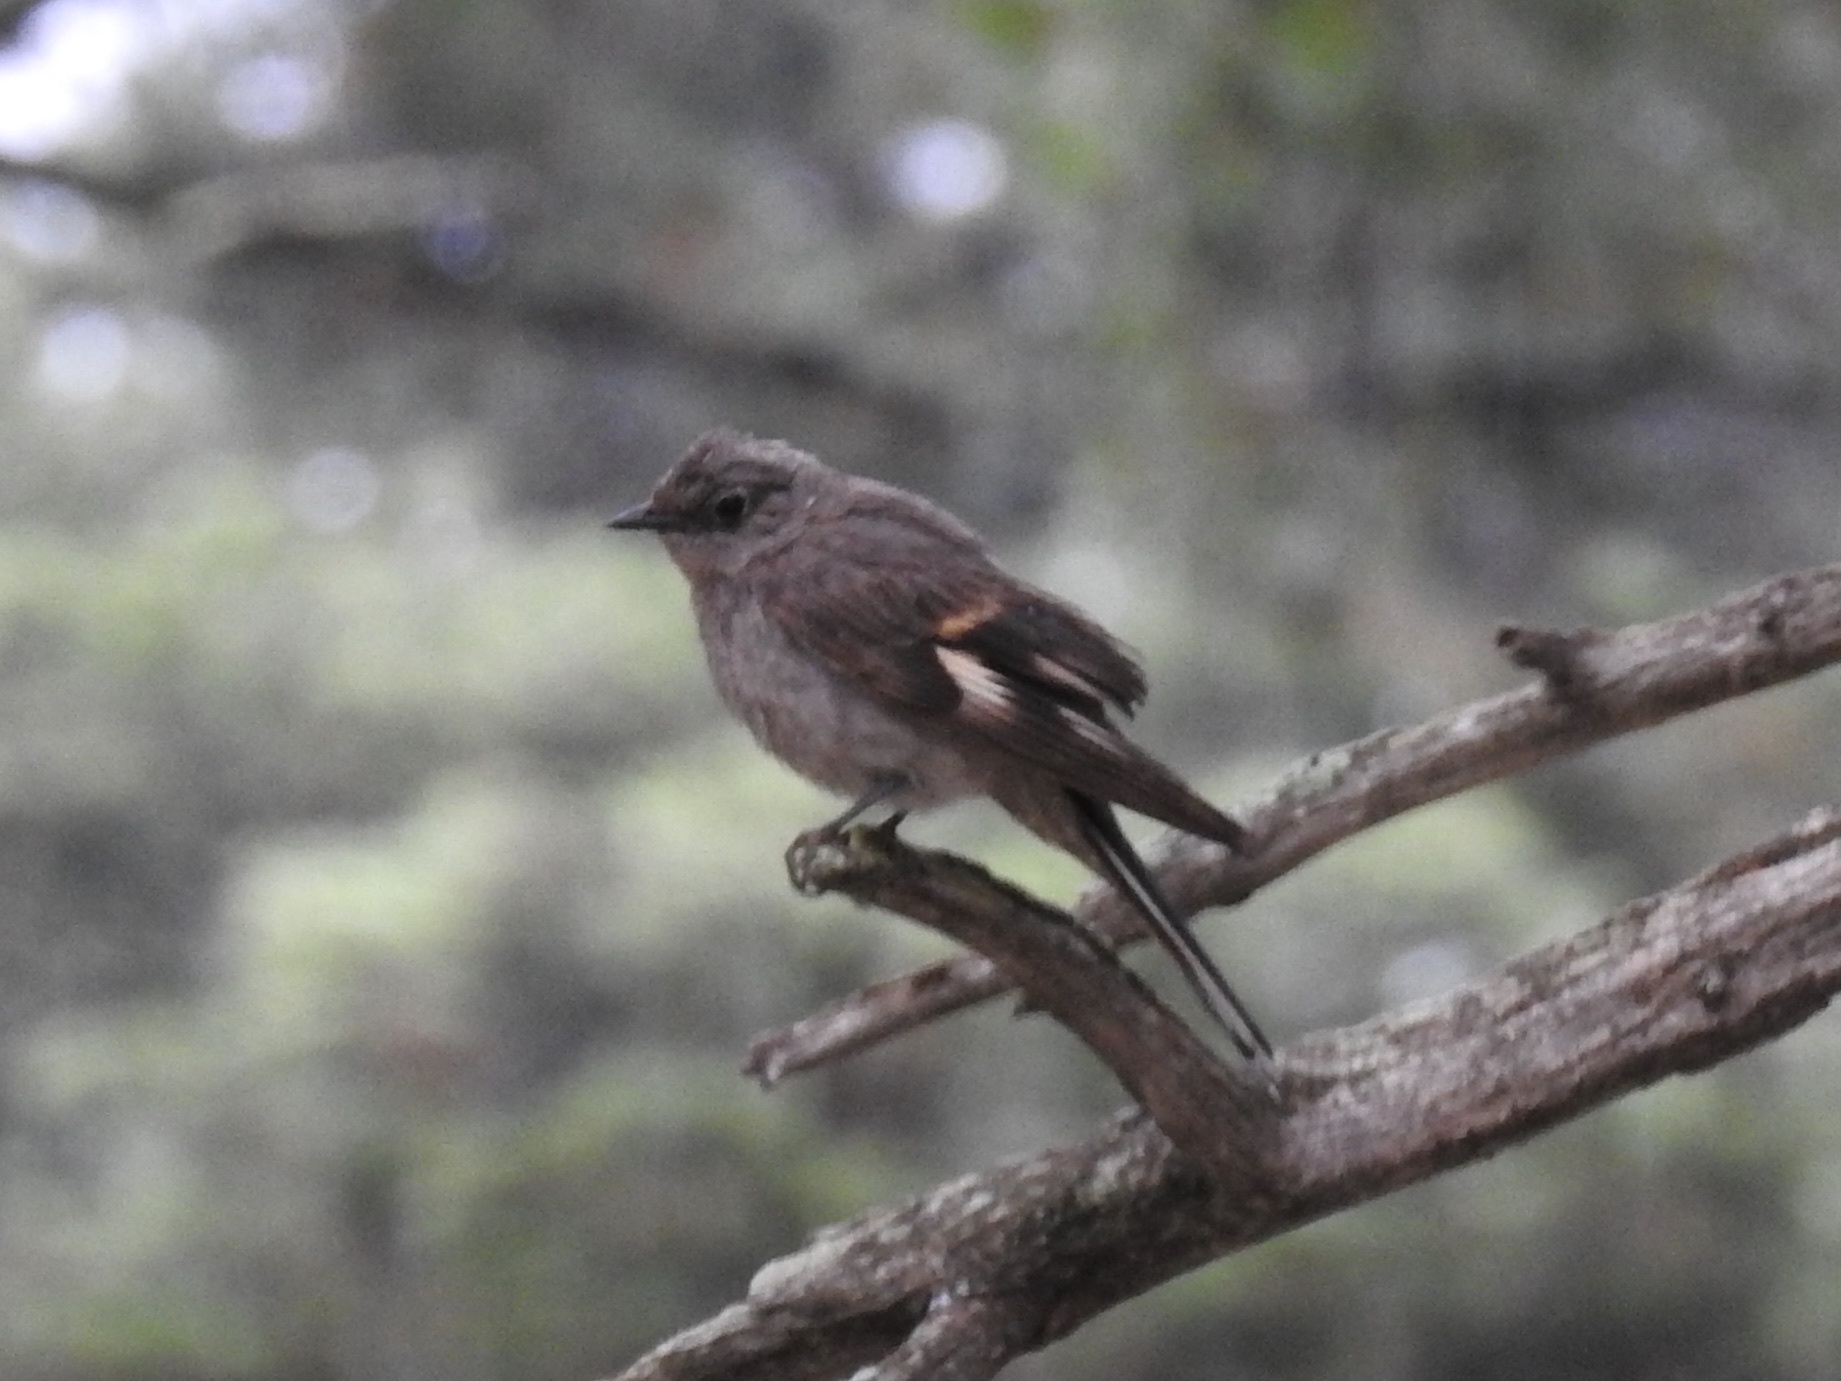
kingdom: Animalia
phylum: Chordata
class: Aves
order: Passeriformes
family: Turdidae
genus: Myadestes
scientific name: Myadestes townsendi
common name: Townsend's solitaire
